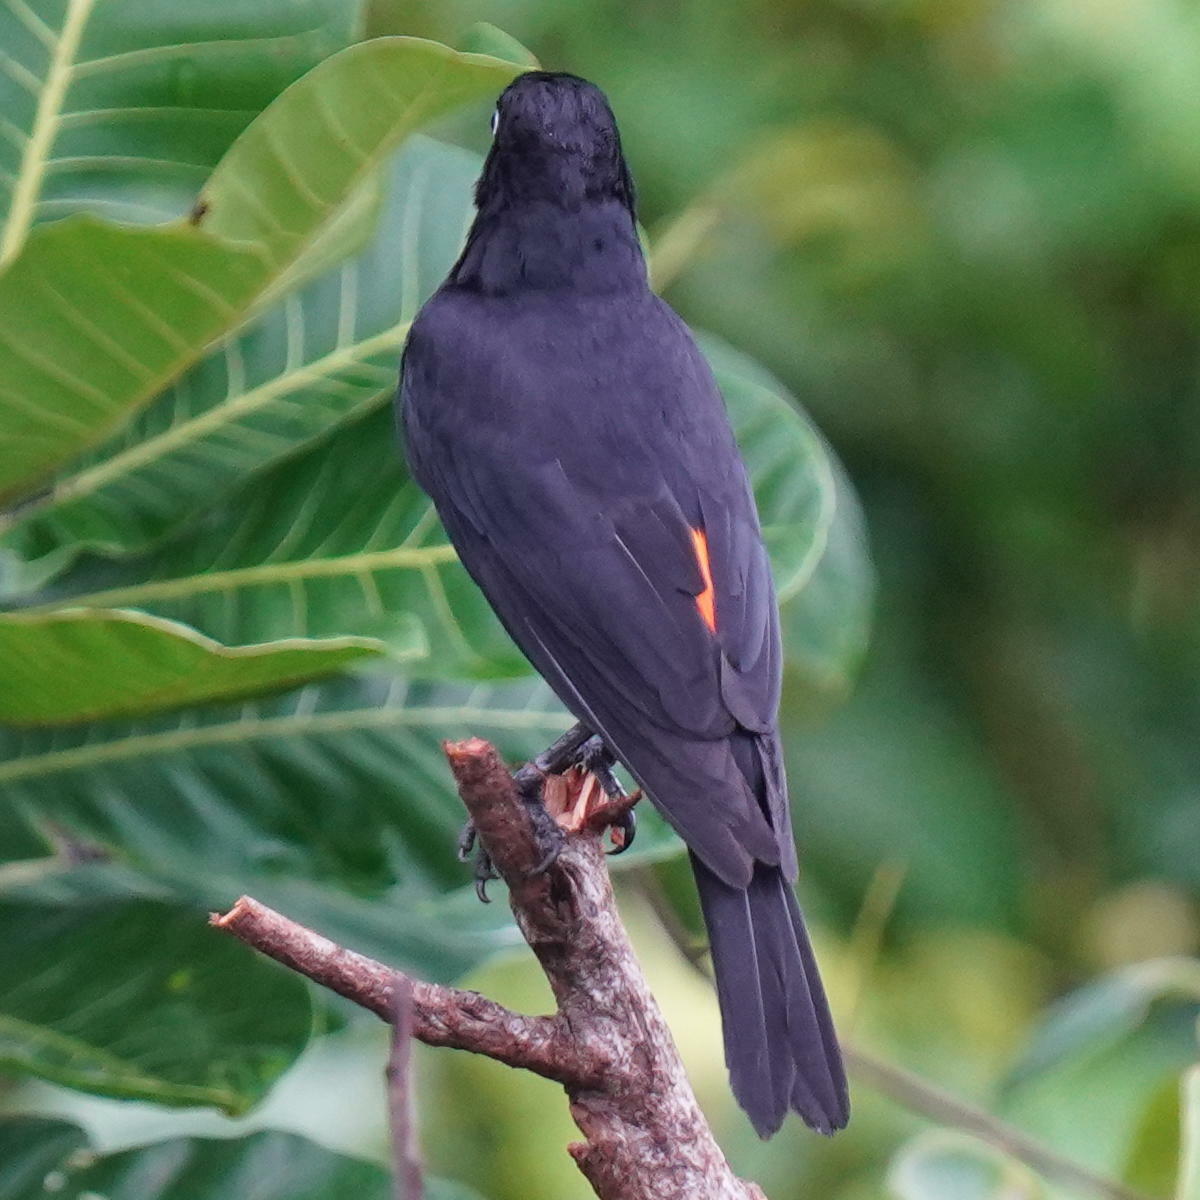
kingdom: Animalia
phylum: Chordata
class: Aves
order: Passeriformes
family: Icteridae
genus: Cacicus
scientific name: Cacicus uropygialis
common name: Scarlet-rumped cacique
